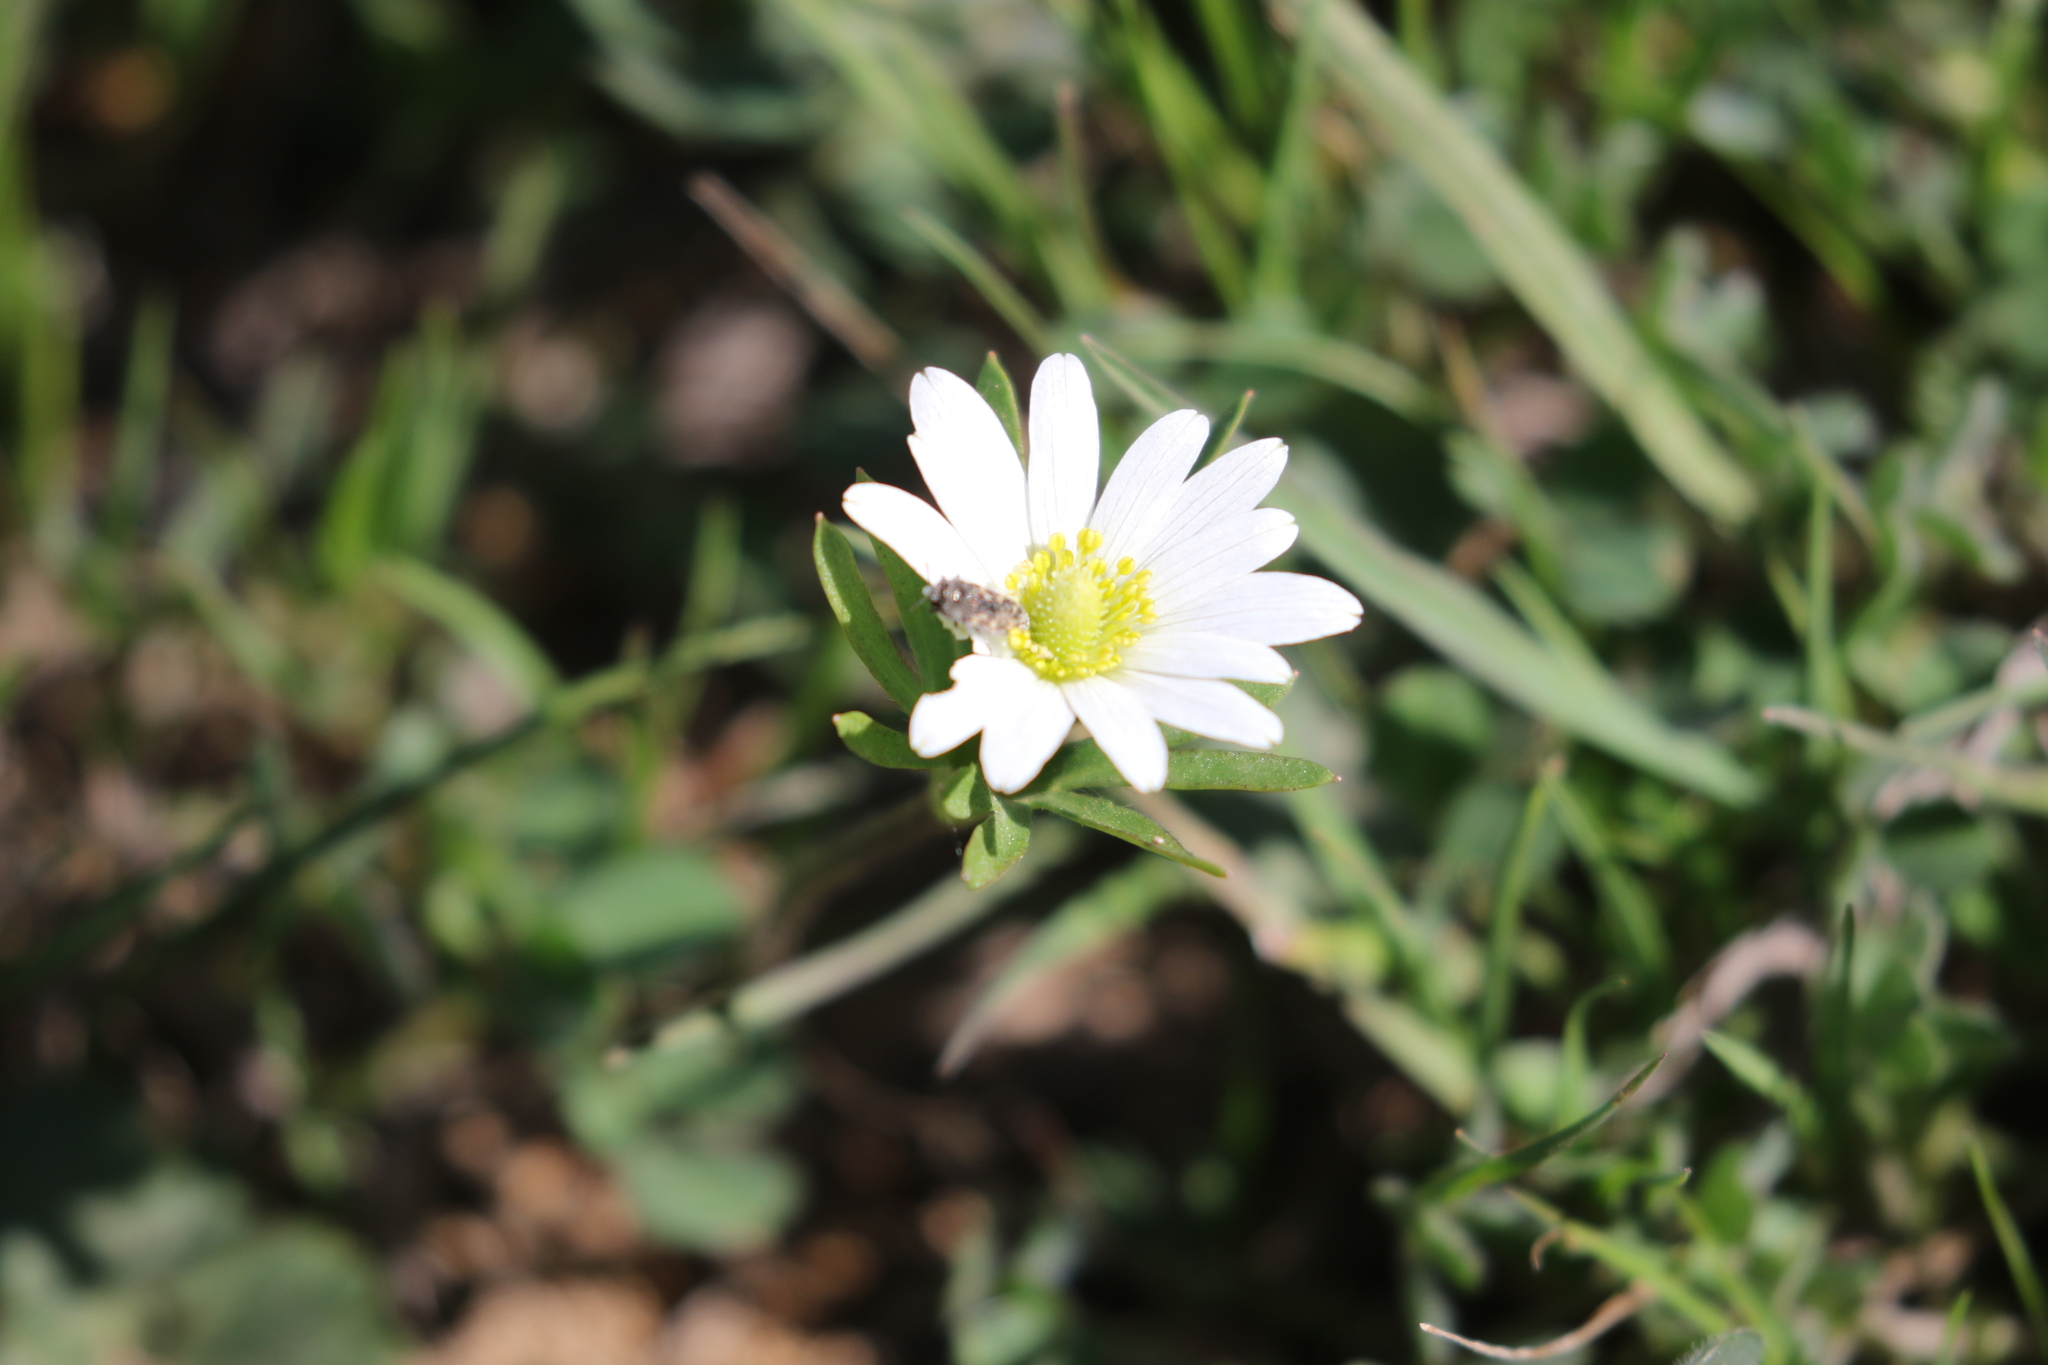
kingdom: Plantae
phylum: Tracheophyta
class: Magnoliopsida
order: Ranunculales
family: Ranunculaceae
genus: Anemone
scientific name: Anemone berlandieri
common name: Ten-petal anemone
